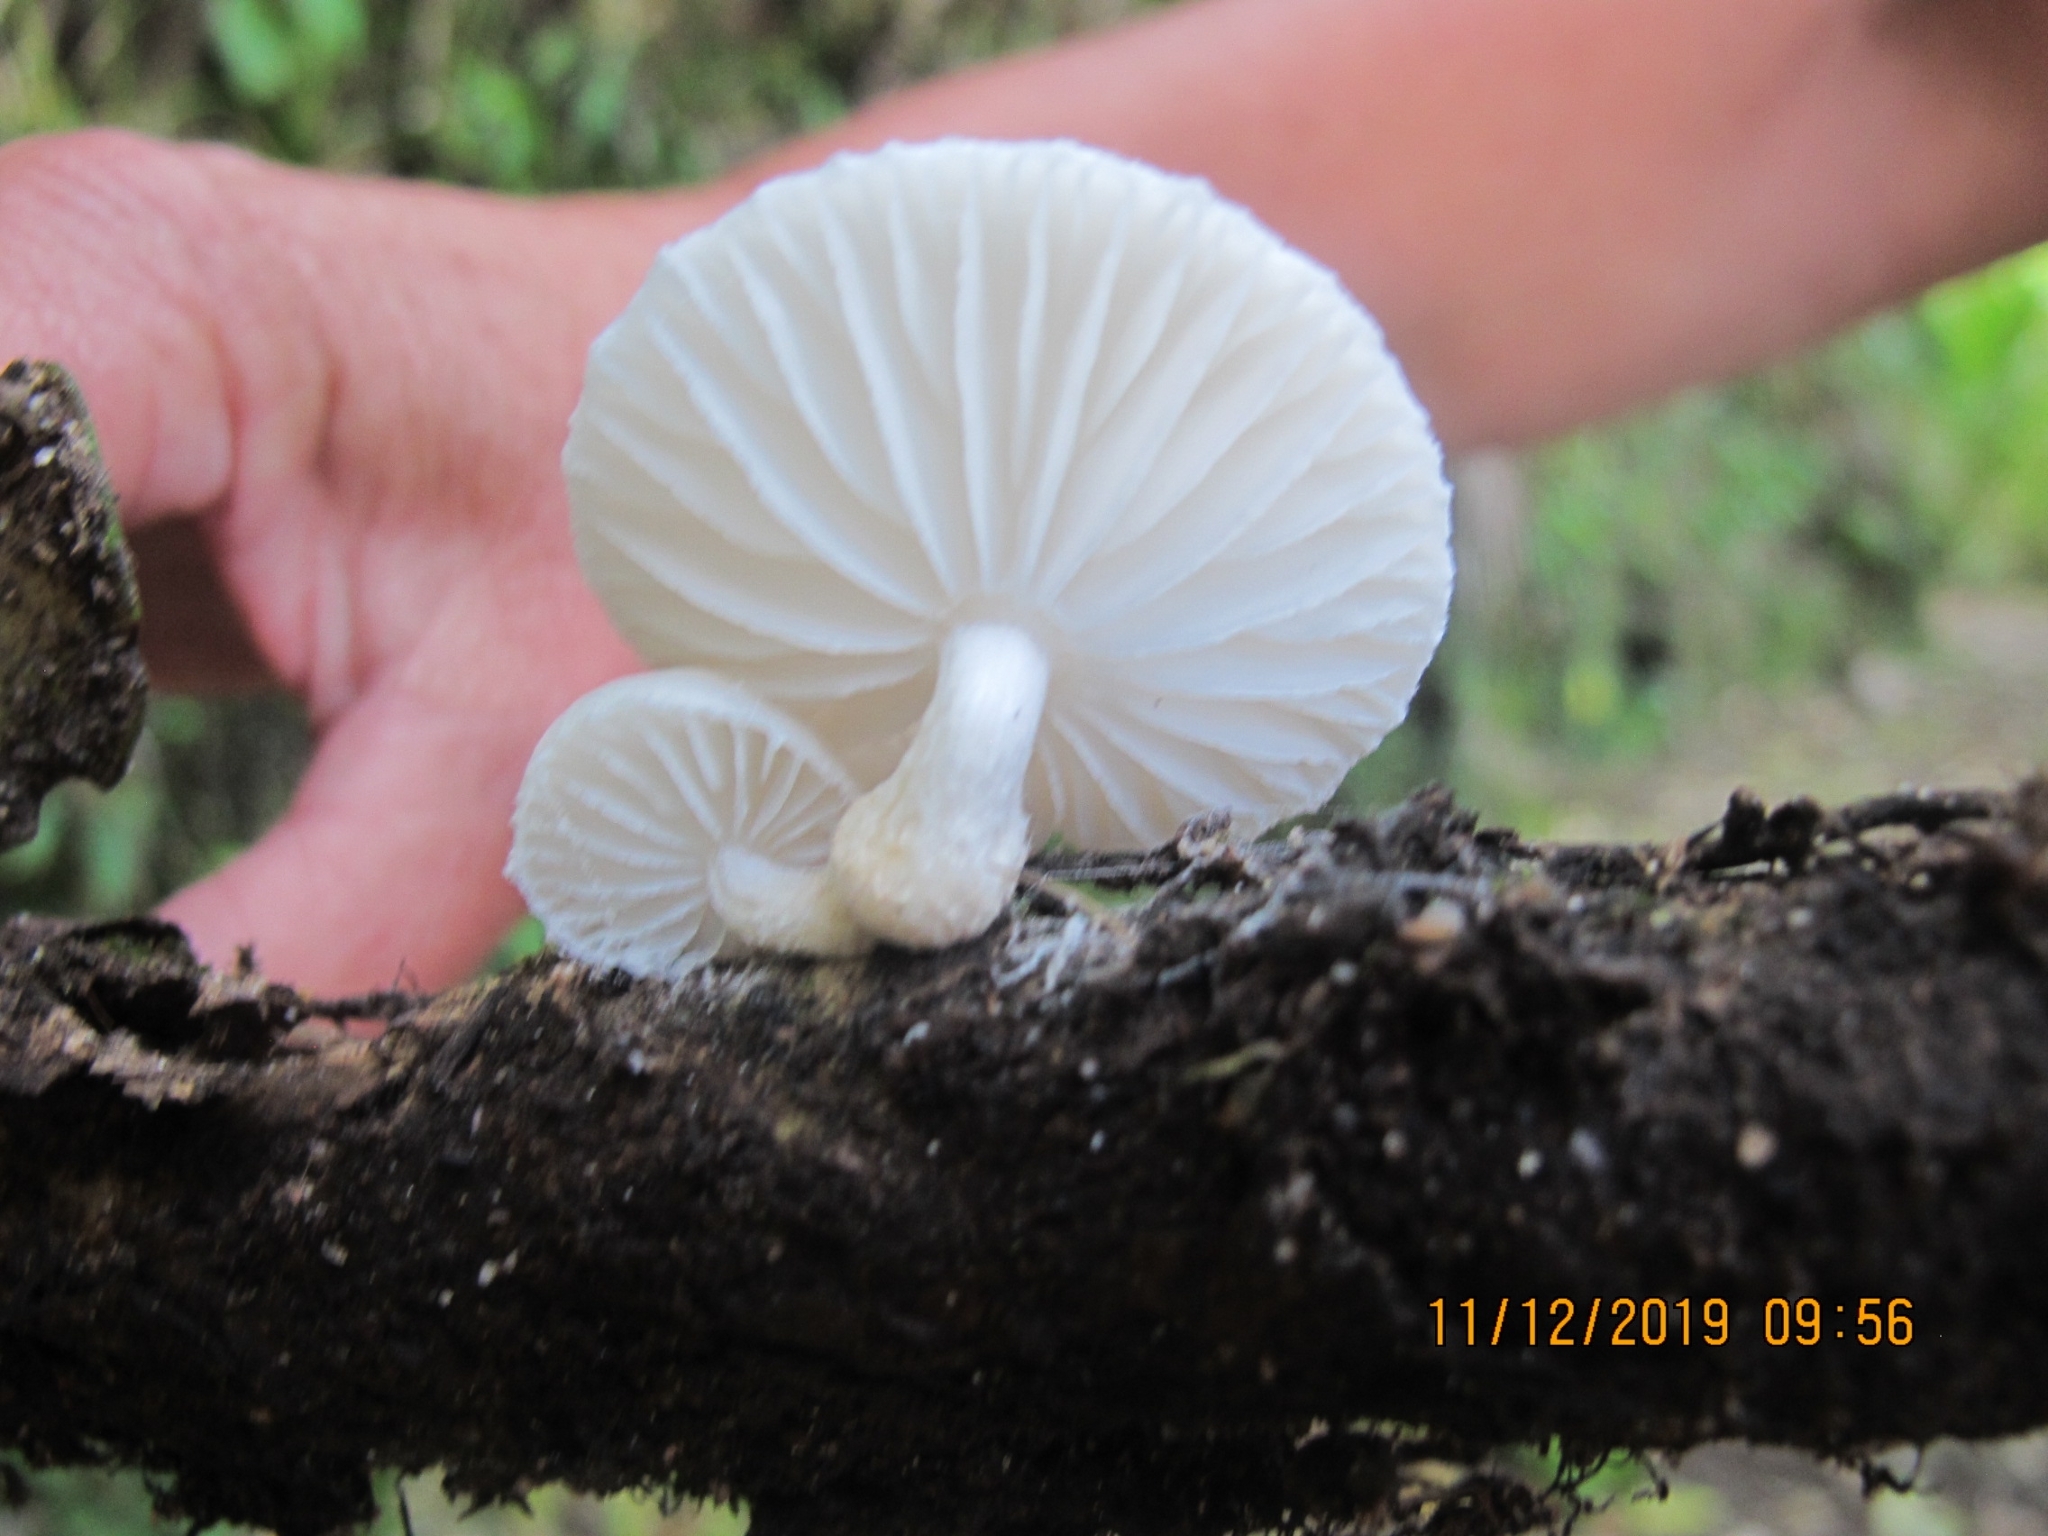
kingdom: Fungi
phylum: Basidiomycota
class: Agaricomycetes
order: Agaricales
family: Physalacriaceae
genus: Oudemansiella
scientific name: Oudemansiella australis
